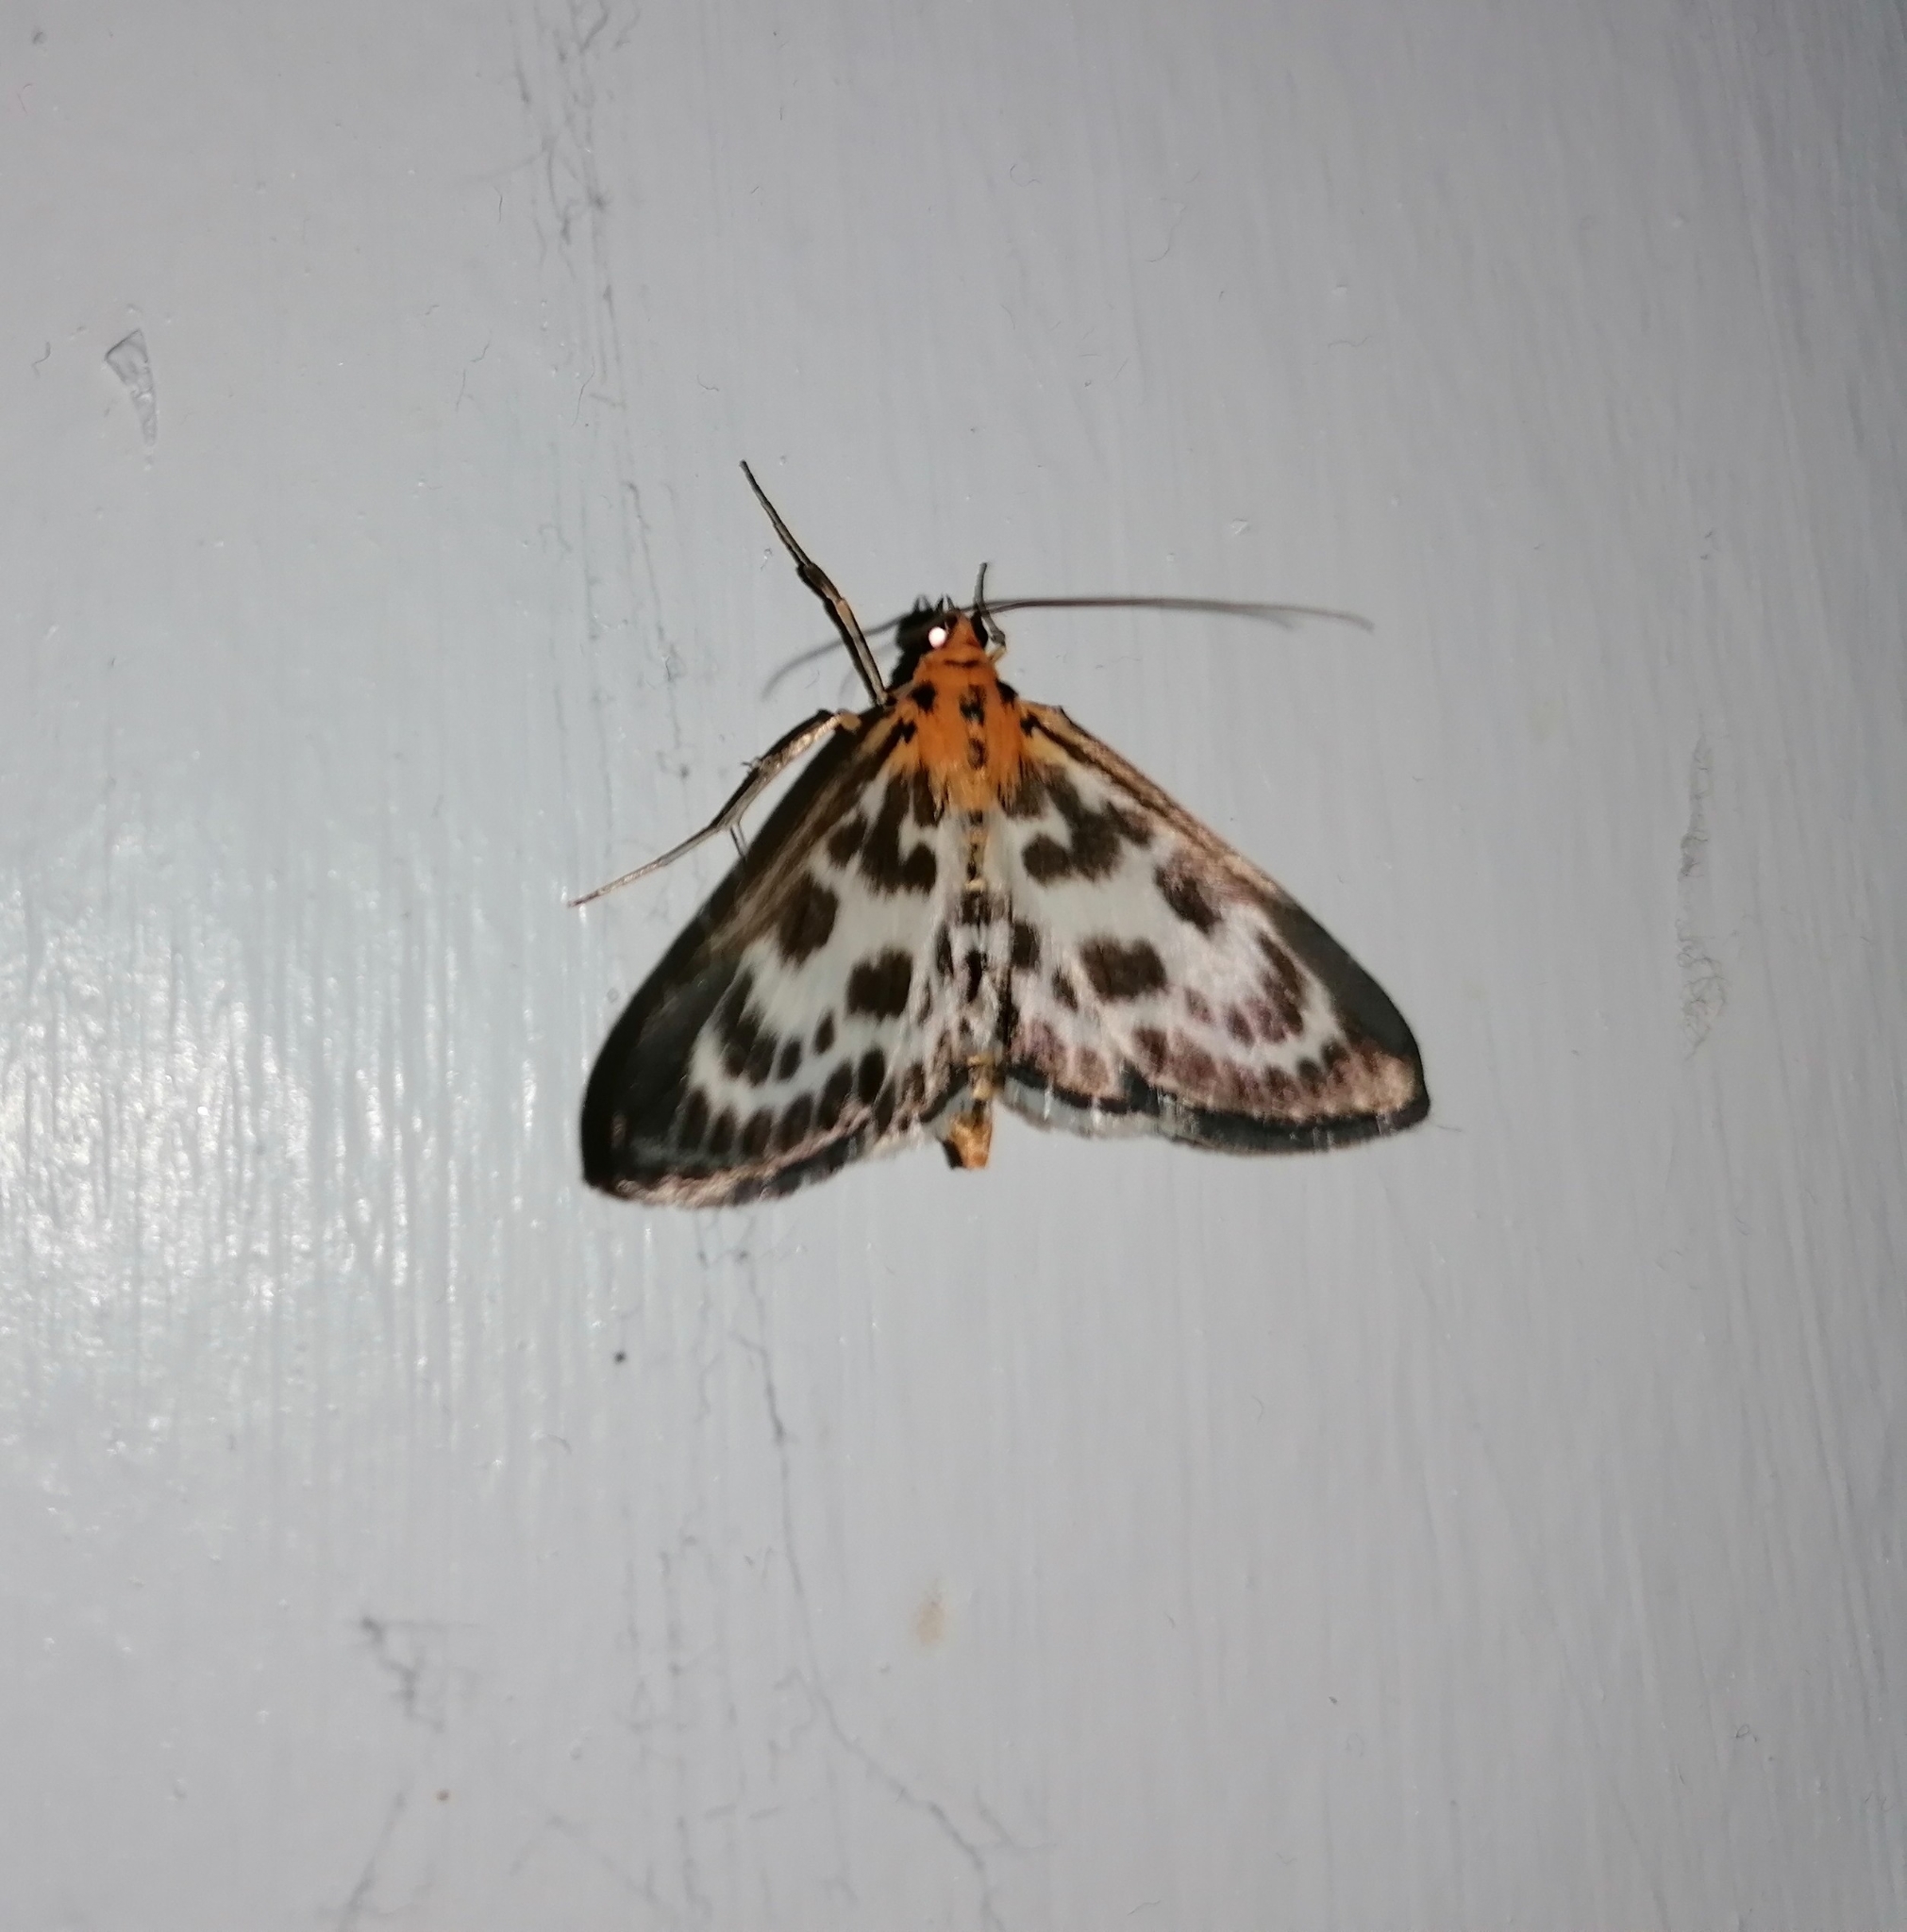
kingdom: Animalia
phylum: Arthropoda
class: Insecta
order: Lepidoptera
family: Crambidae
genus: Anania
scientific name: Anania hortulata
